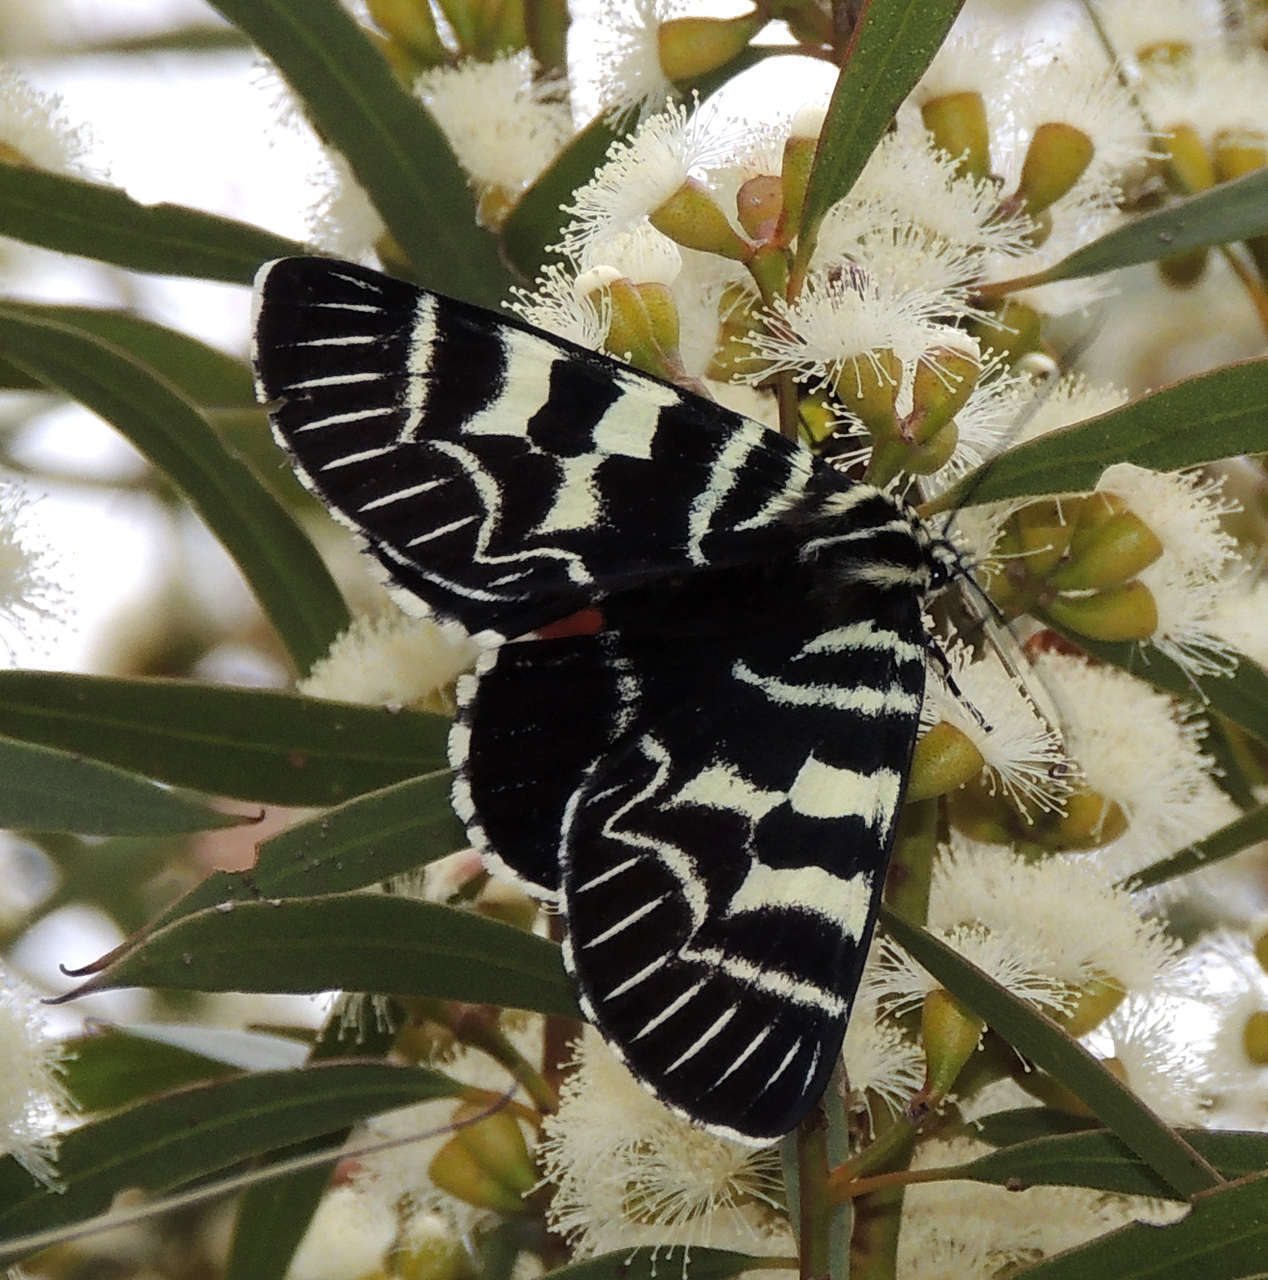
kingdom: Animalia
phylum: Arthropoda
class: Insecta
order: Lepidoptera
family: Noctuidae
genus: Comocrus
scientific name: Comocrus behri
